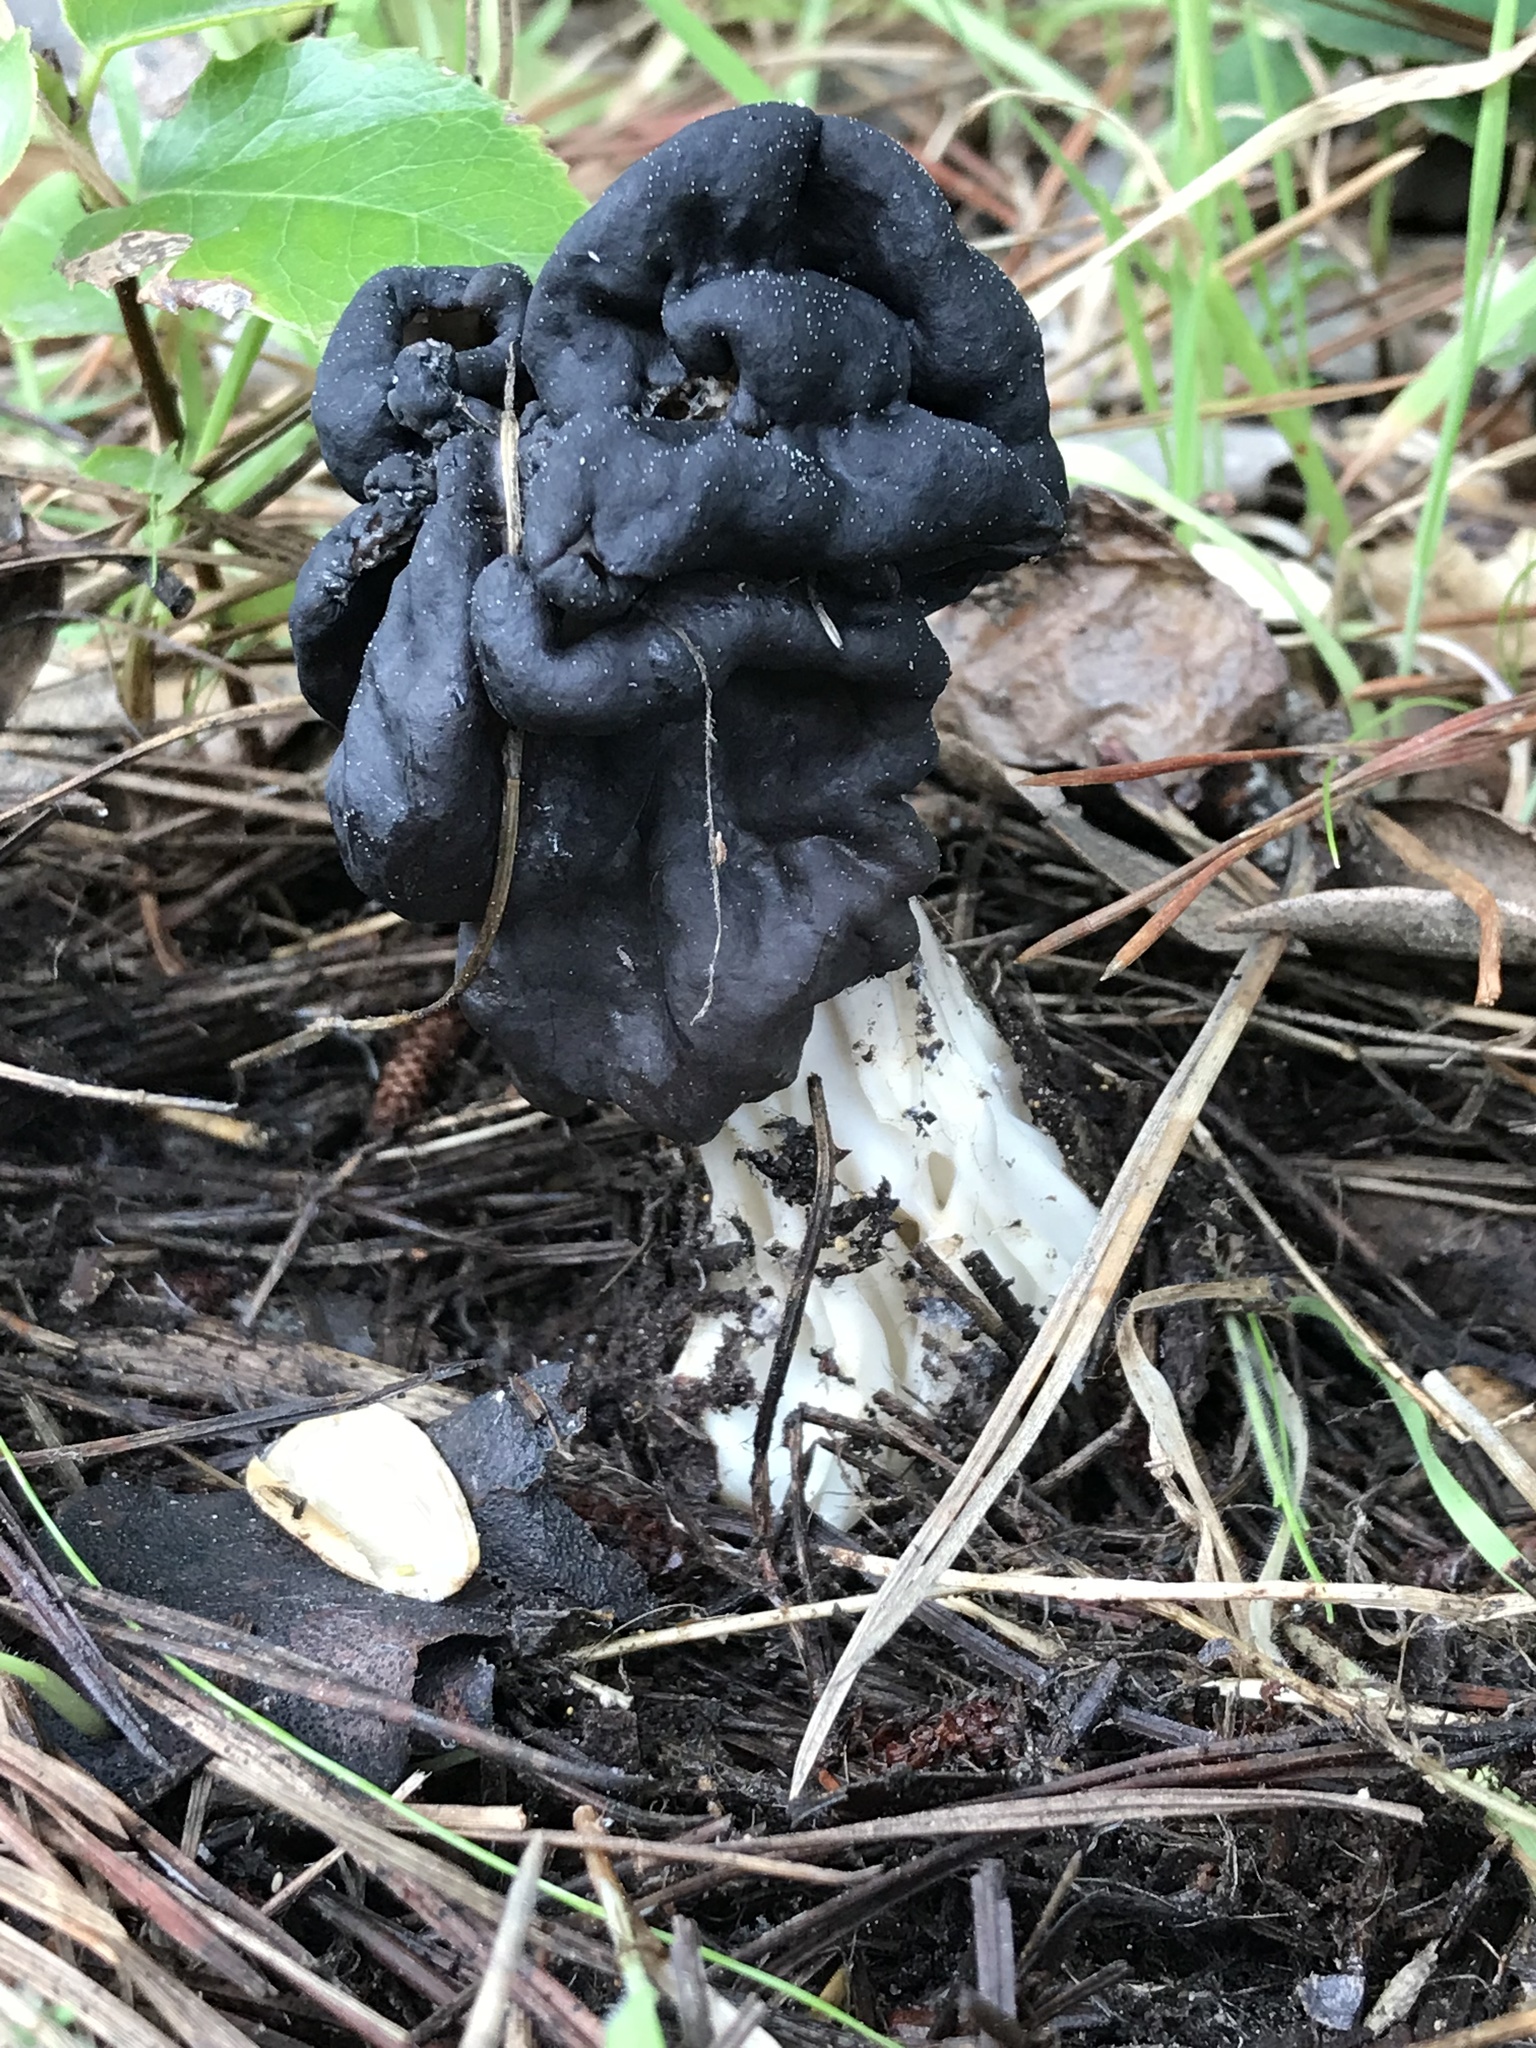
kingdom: Fungi
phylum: Ascomycota
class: Pezizomycetes
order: Pezizales
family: Helvellaceae
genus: Helvella
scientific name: Helvella vespertina
